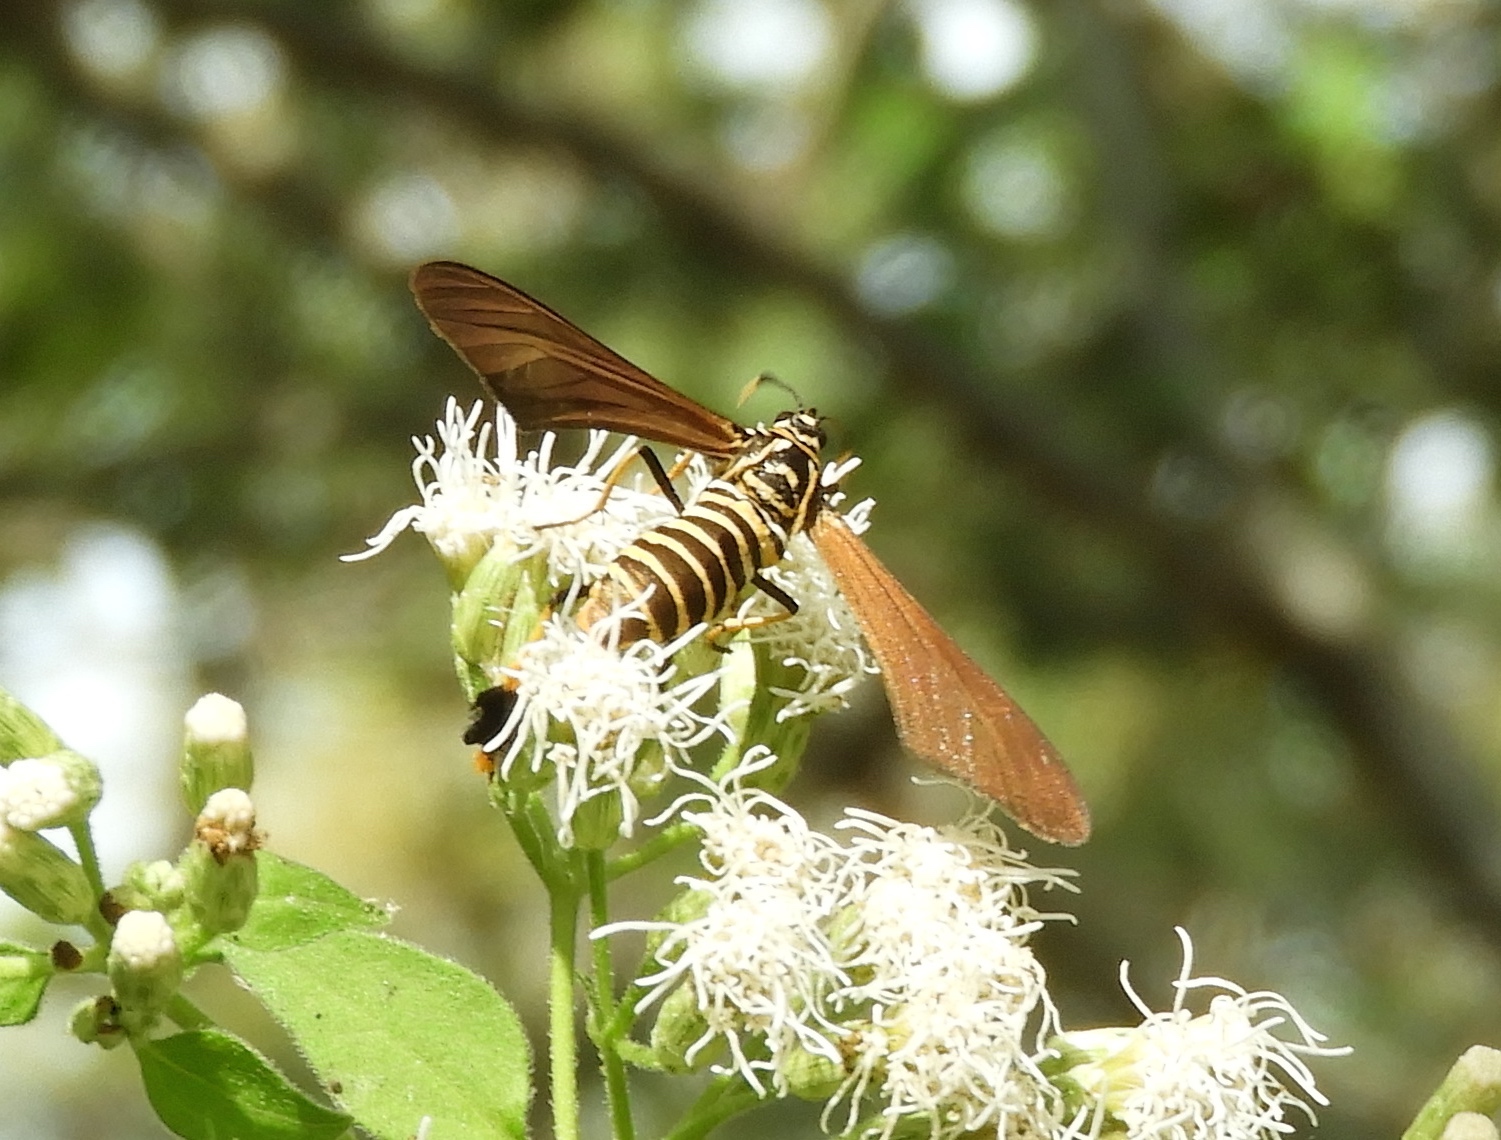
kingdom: Animalia
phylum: Arthropoda
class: Insecta
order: Lepidoptera
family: Erebidae
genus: Horama
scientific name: Horama panthalon
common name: Texas wasp moth
